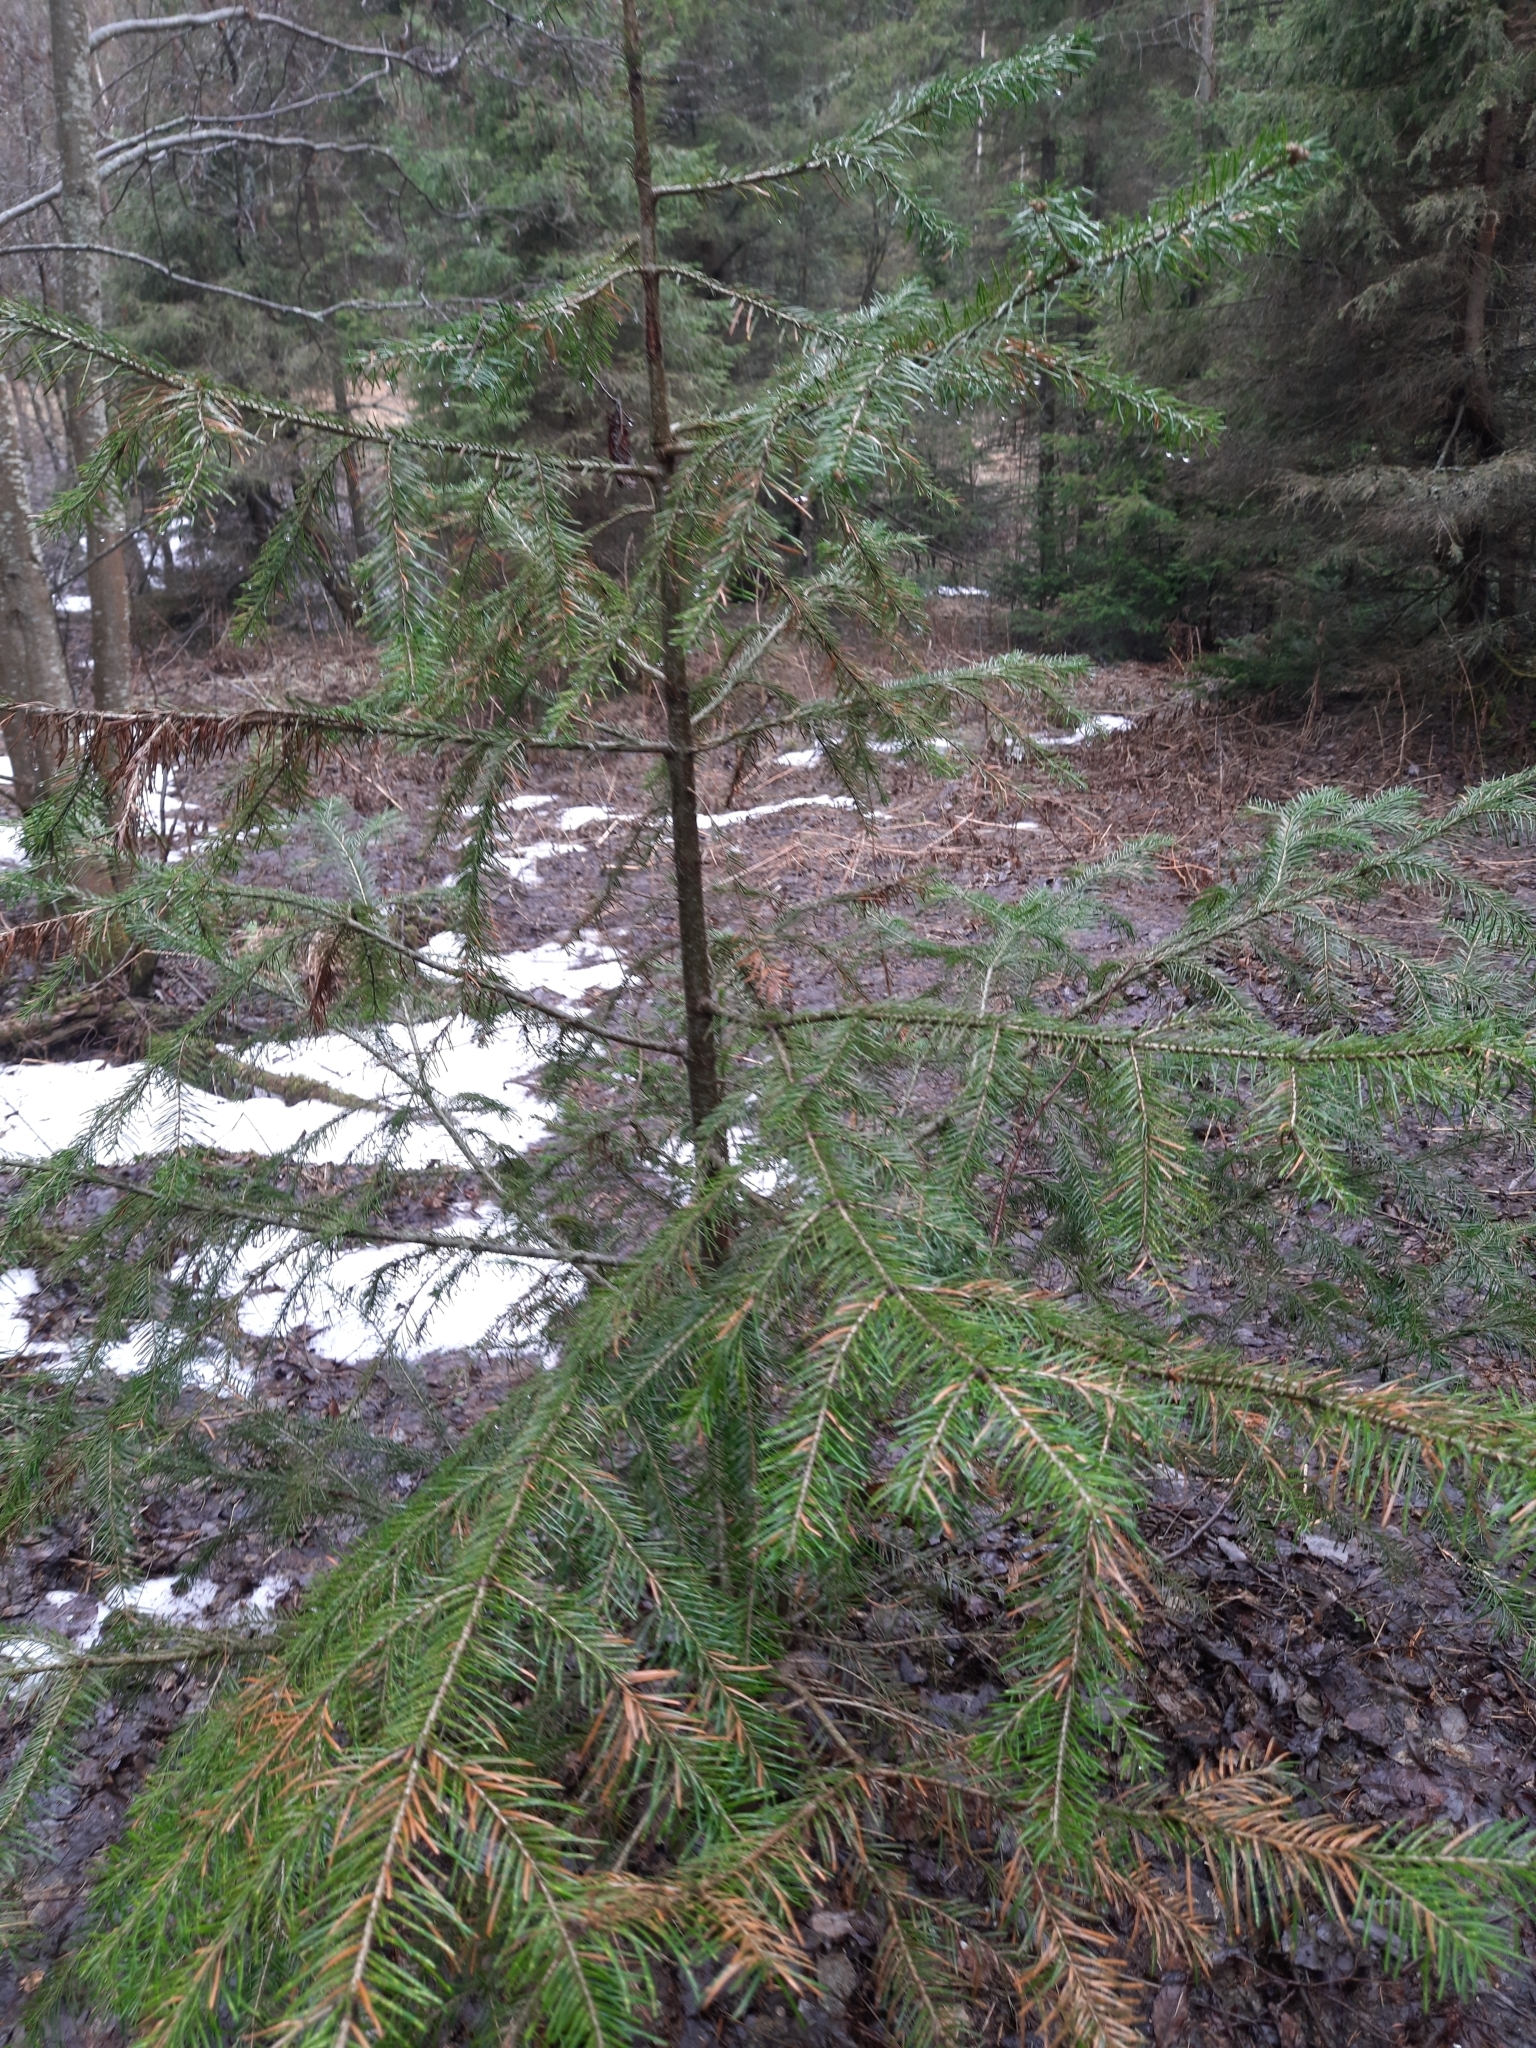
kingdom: Plantae
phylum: Tracheophyta
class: Pinopsida
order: Pinales
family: Pinaceae
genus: Abies
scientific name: Abies sibirica
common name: Siberian fir
